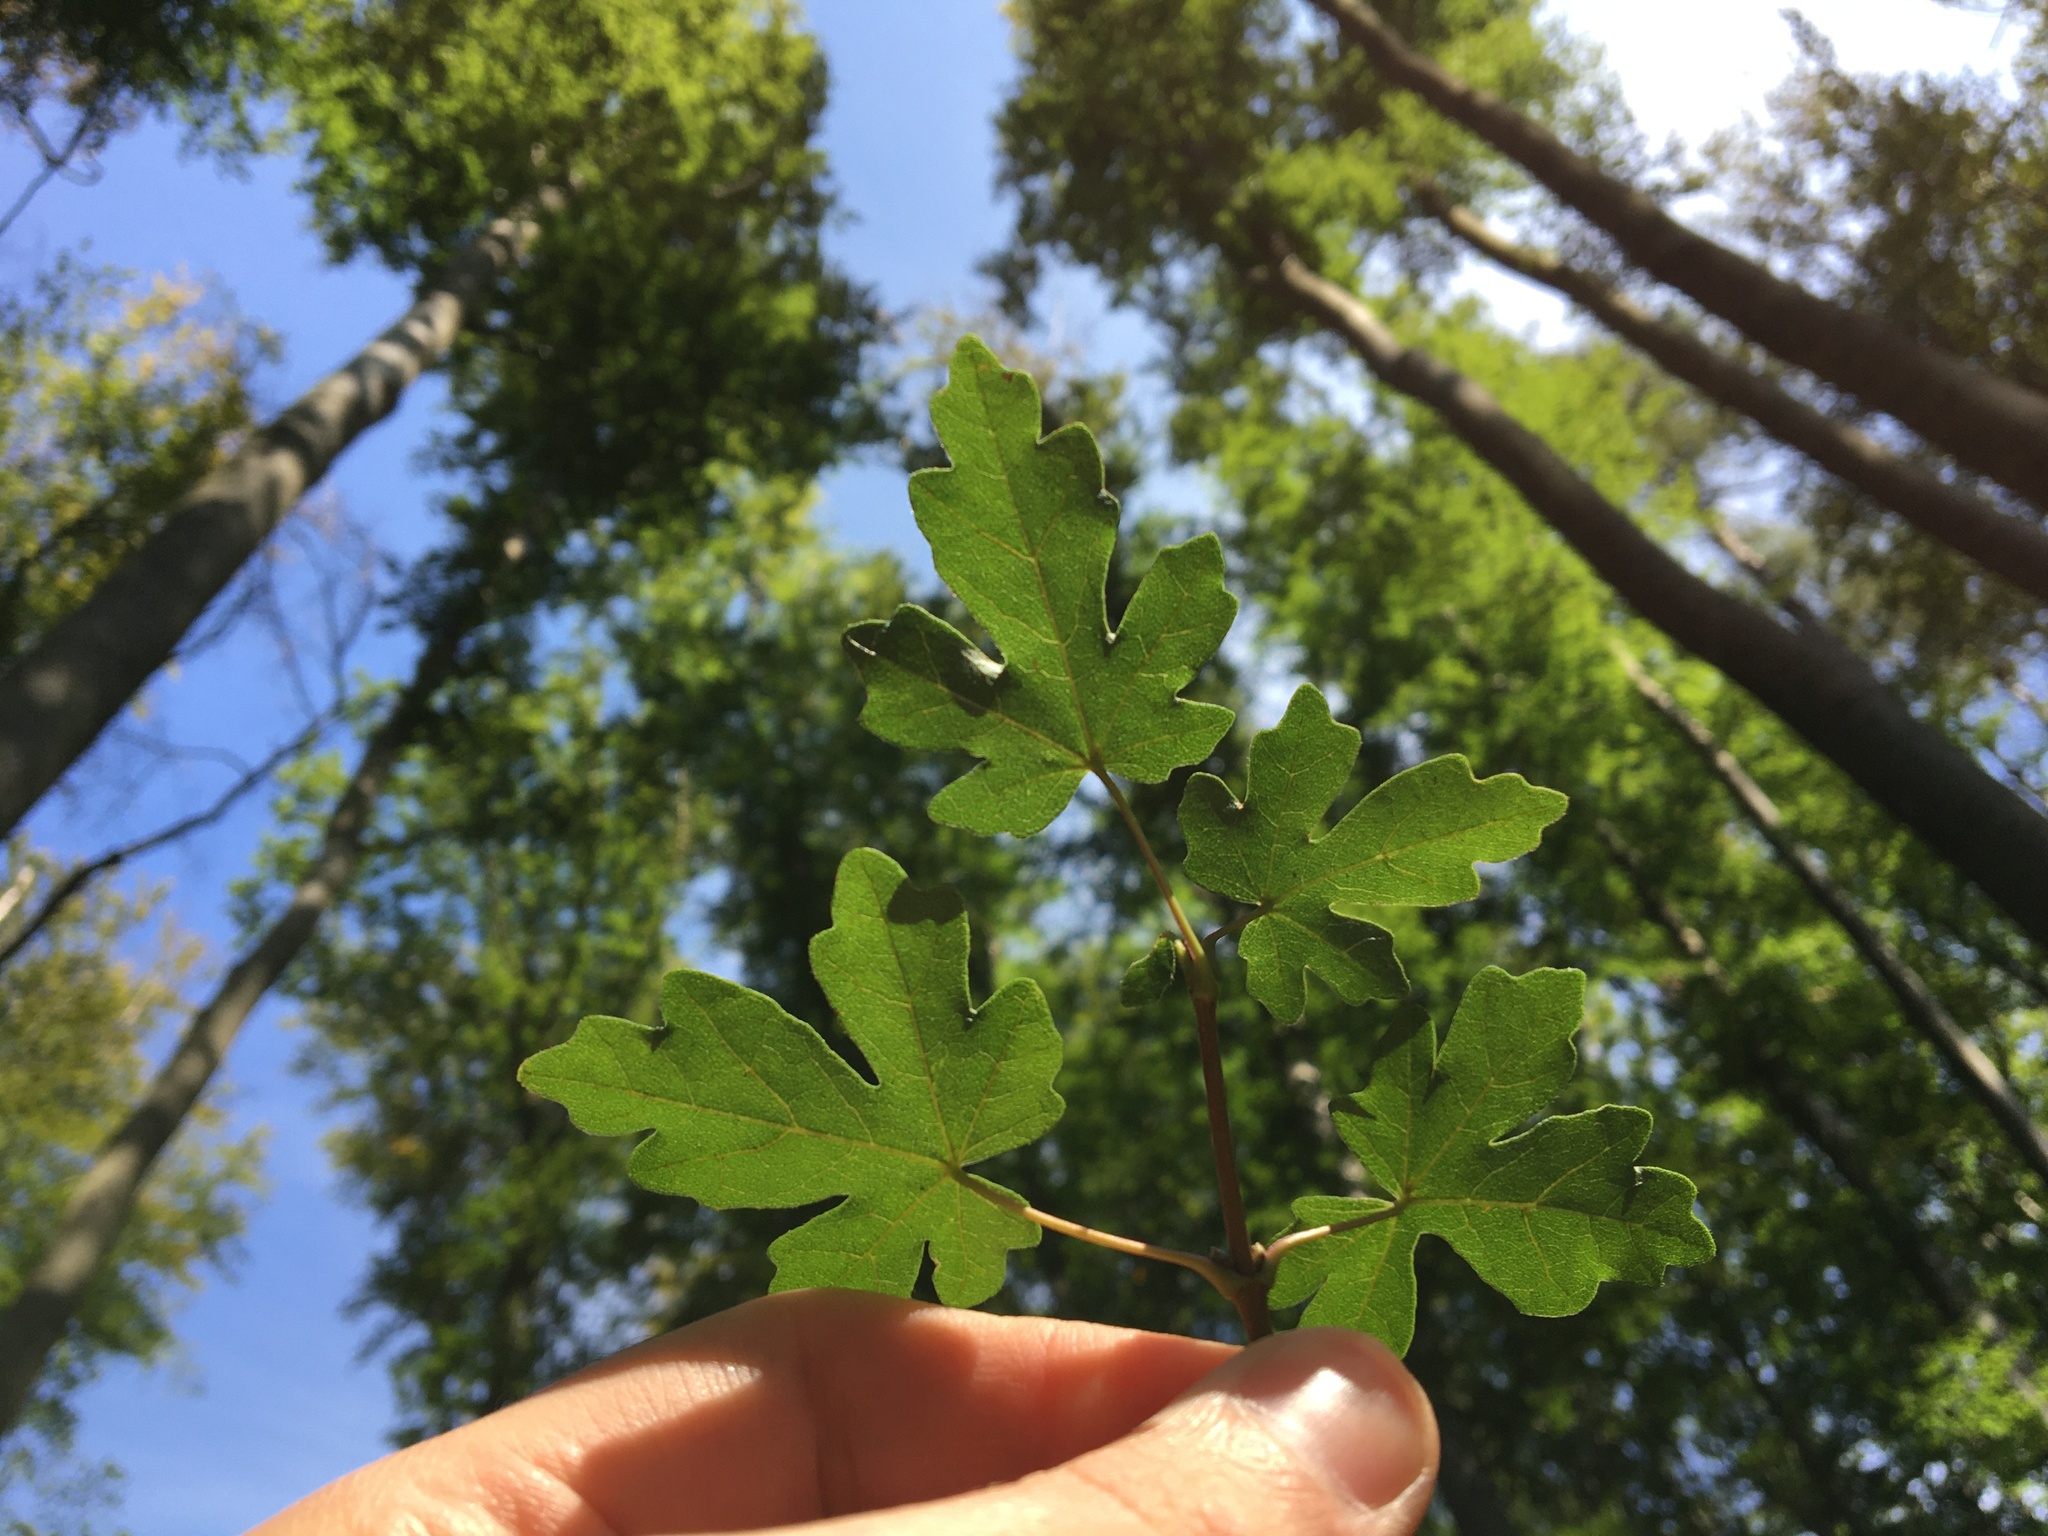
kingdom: Plantae
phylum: Tracheophyta
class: Magnoliopsida
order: Sapindales
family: Sapindaceae
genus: Acer
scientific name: Acer campestre
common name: Field maple
